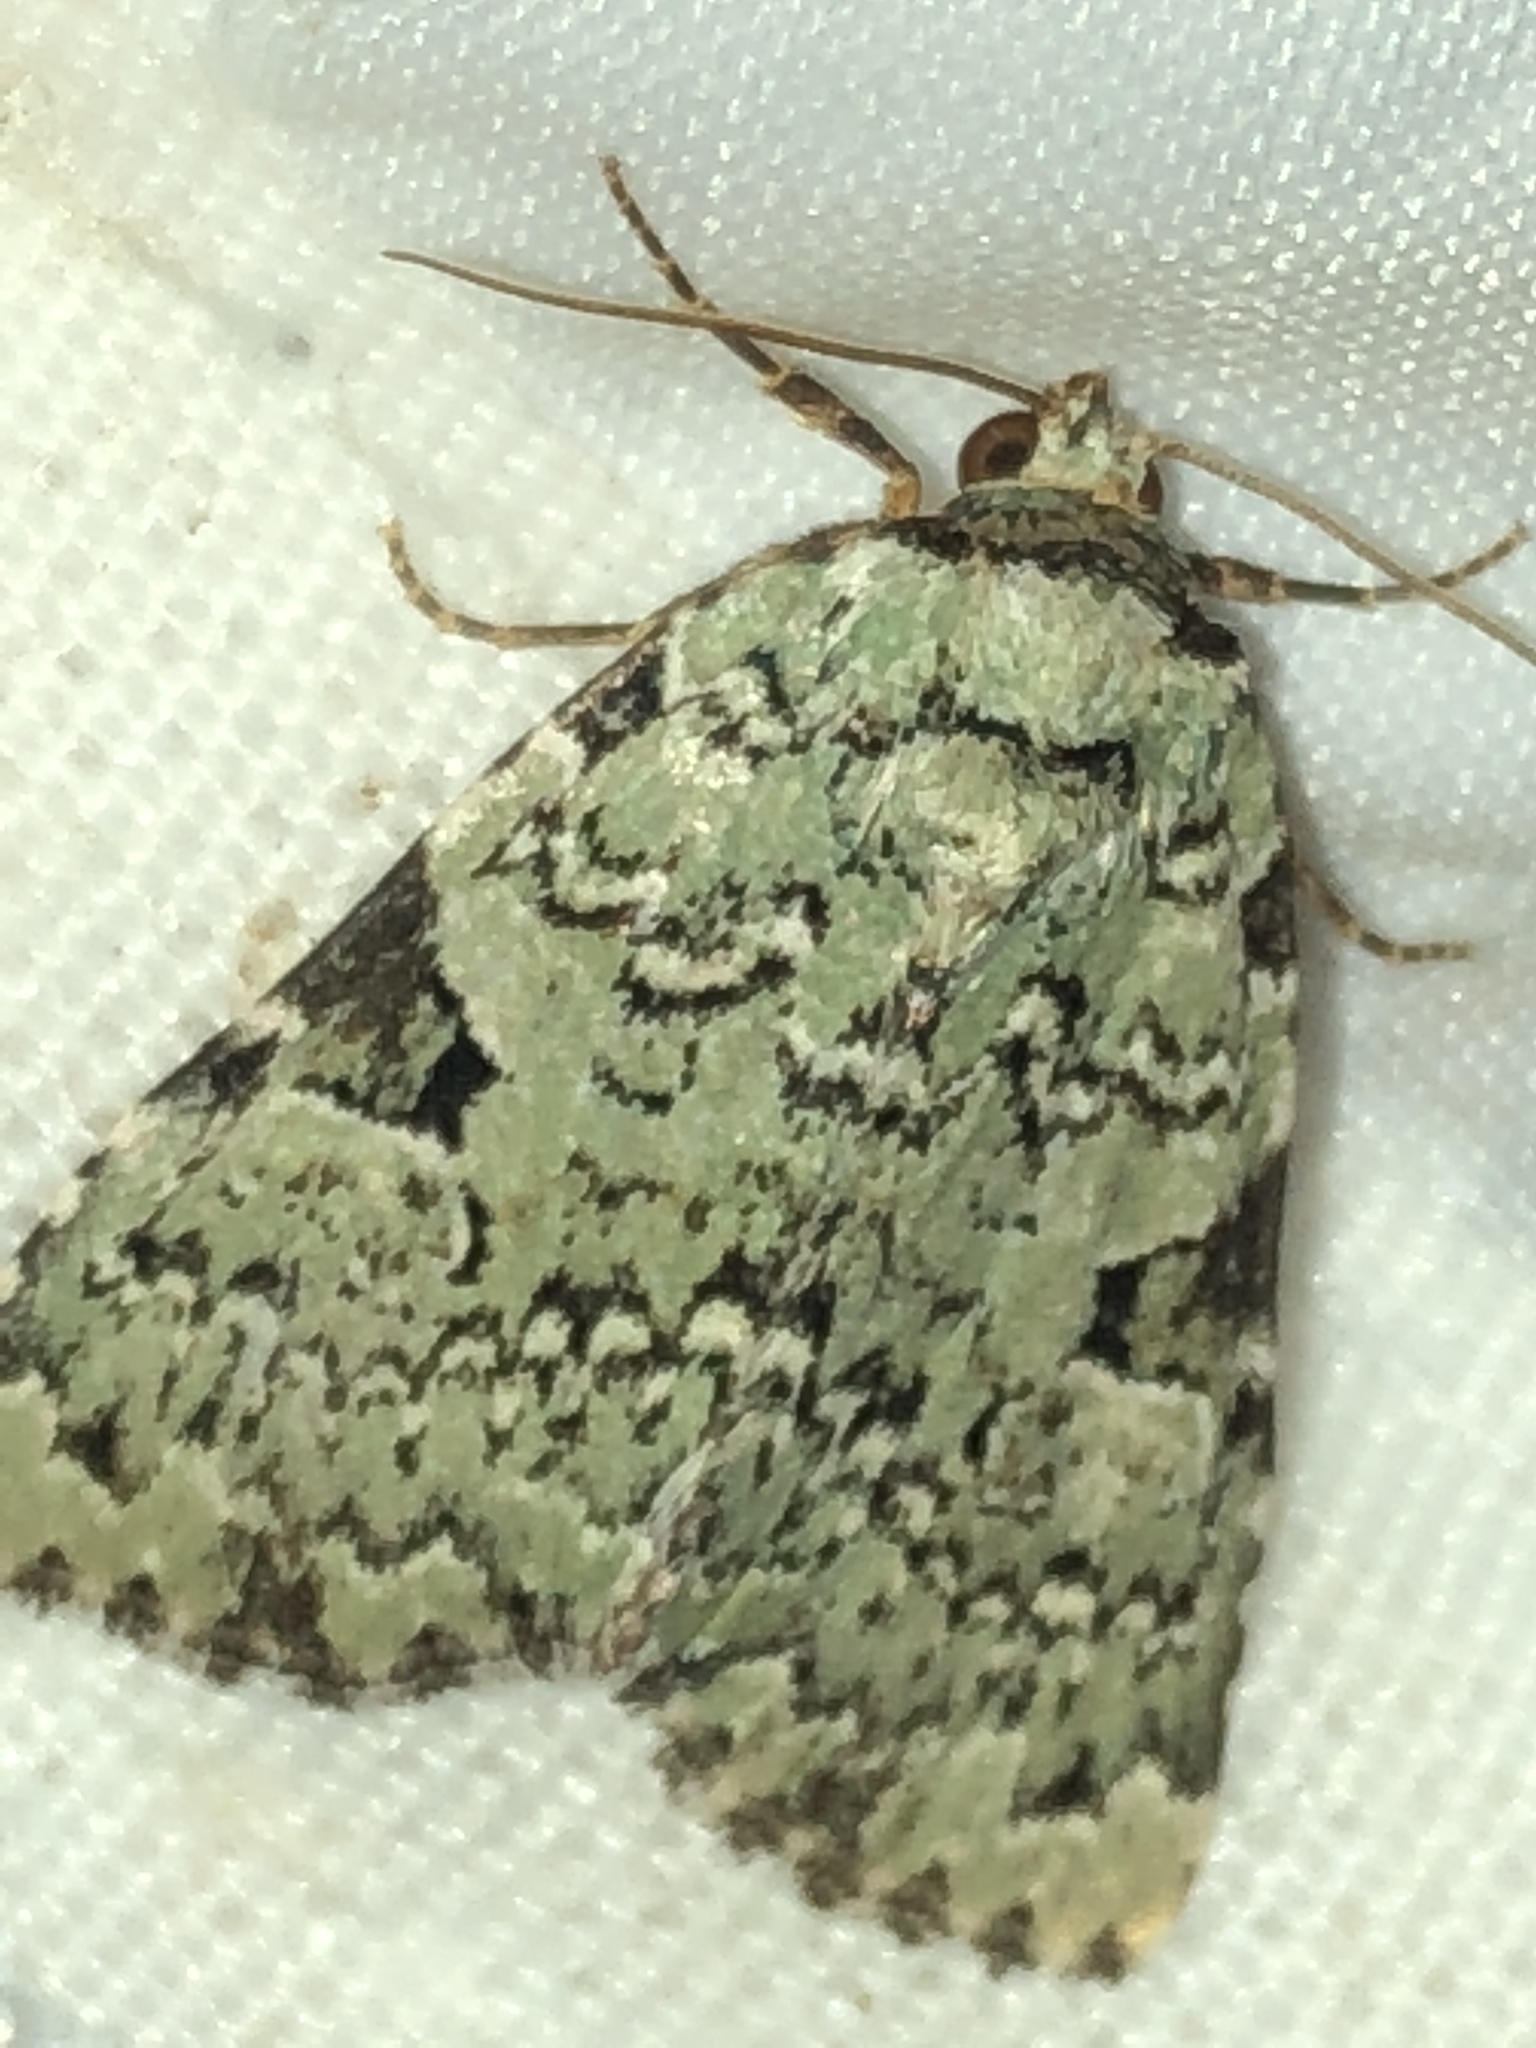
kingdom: Animalia
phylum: Arthropoda
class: Insecta
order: Lepidoptera
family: Noctuidae
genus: Leuconycta
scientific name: Leuconycta diphteroides
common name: Green leuconycta moth
